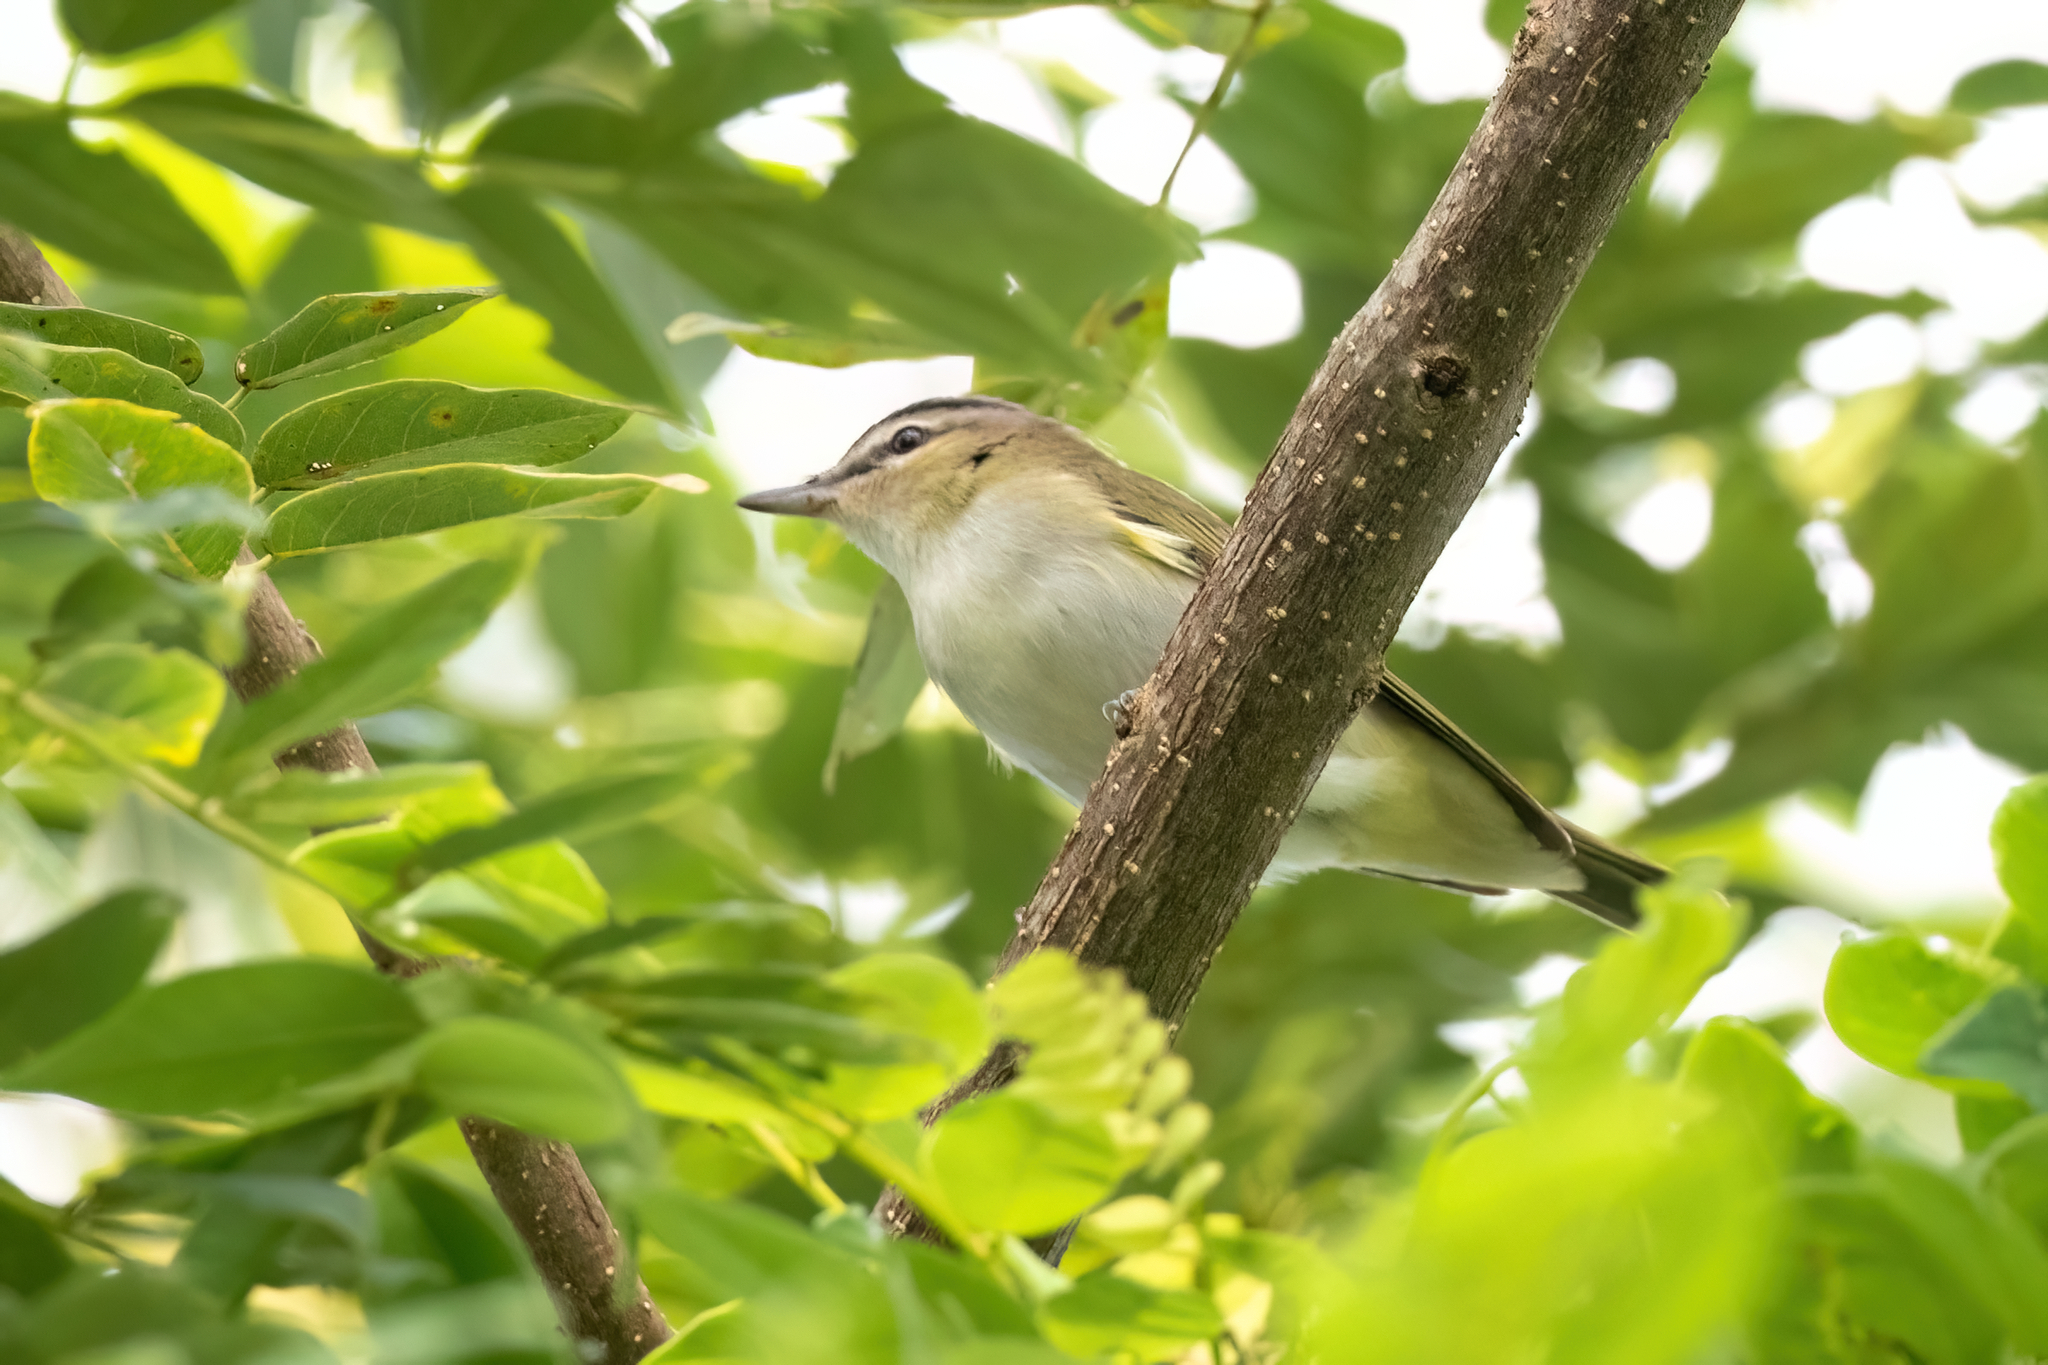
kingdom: Animalia
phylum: Chordata
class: Aves
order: Passeriformes
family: Vireonidae
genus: Vireo
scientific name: Vireo olivaceus
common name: Red-eyed vireo
